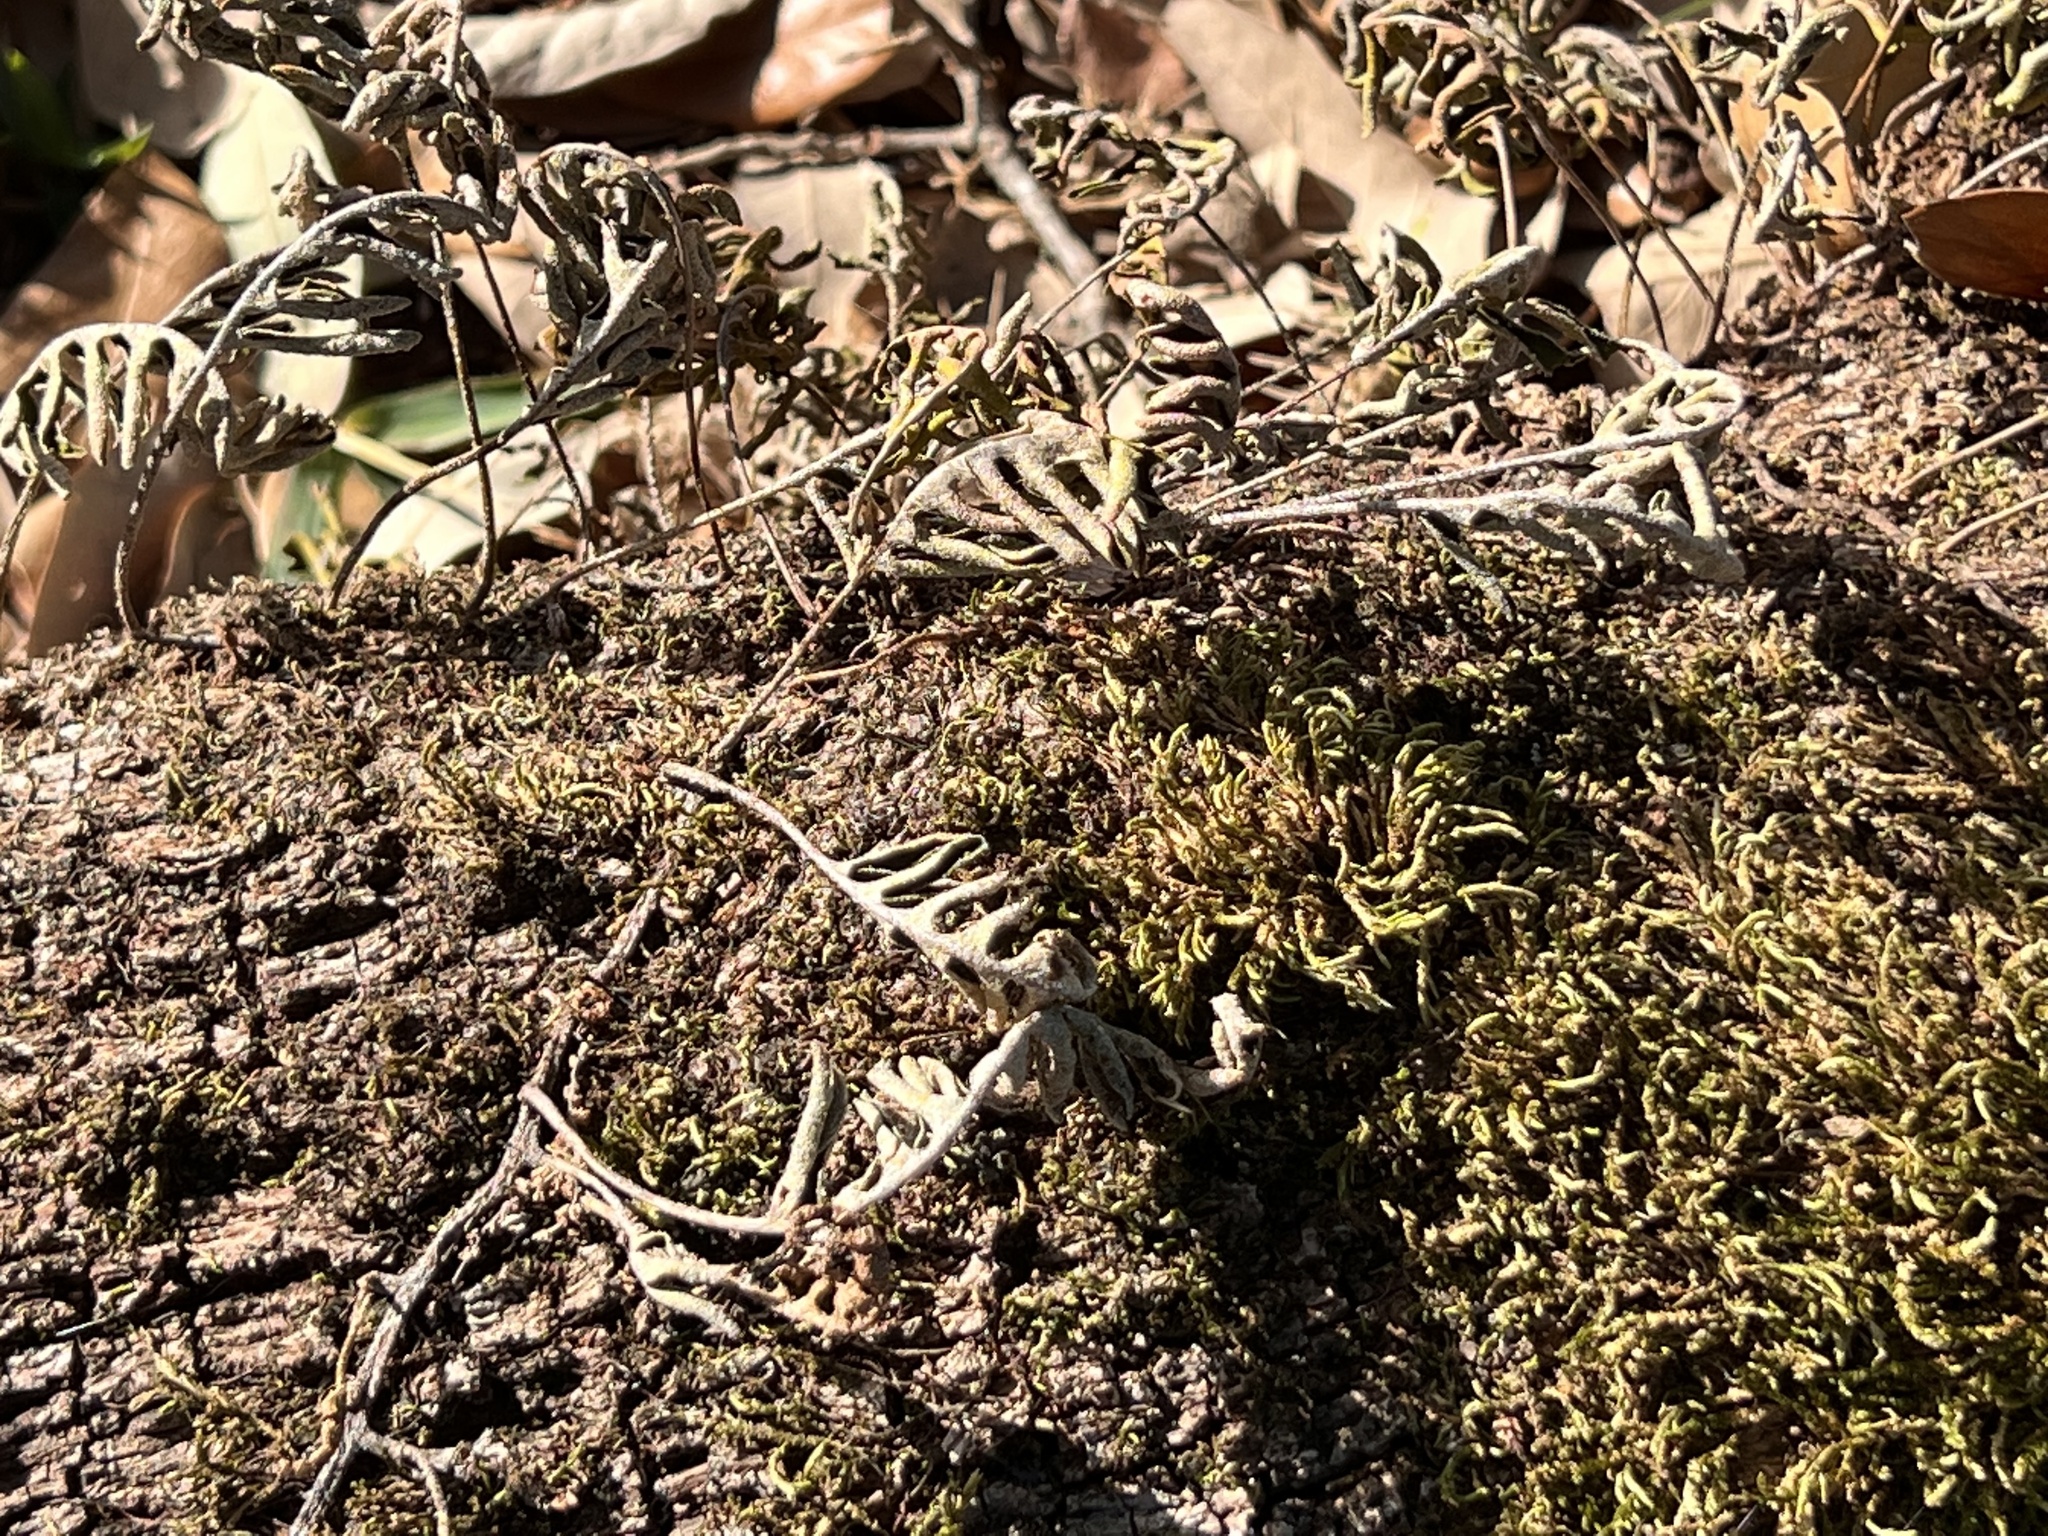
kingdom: Plantae
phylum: Tracheophyta
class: Polypodiopsida
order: Polypodiales
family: Polypodiaceae
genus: Pleopeltis
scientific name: Pleopeltis michauxiana
